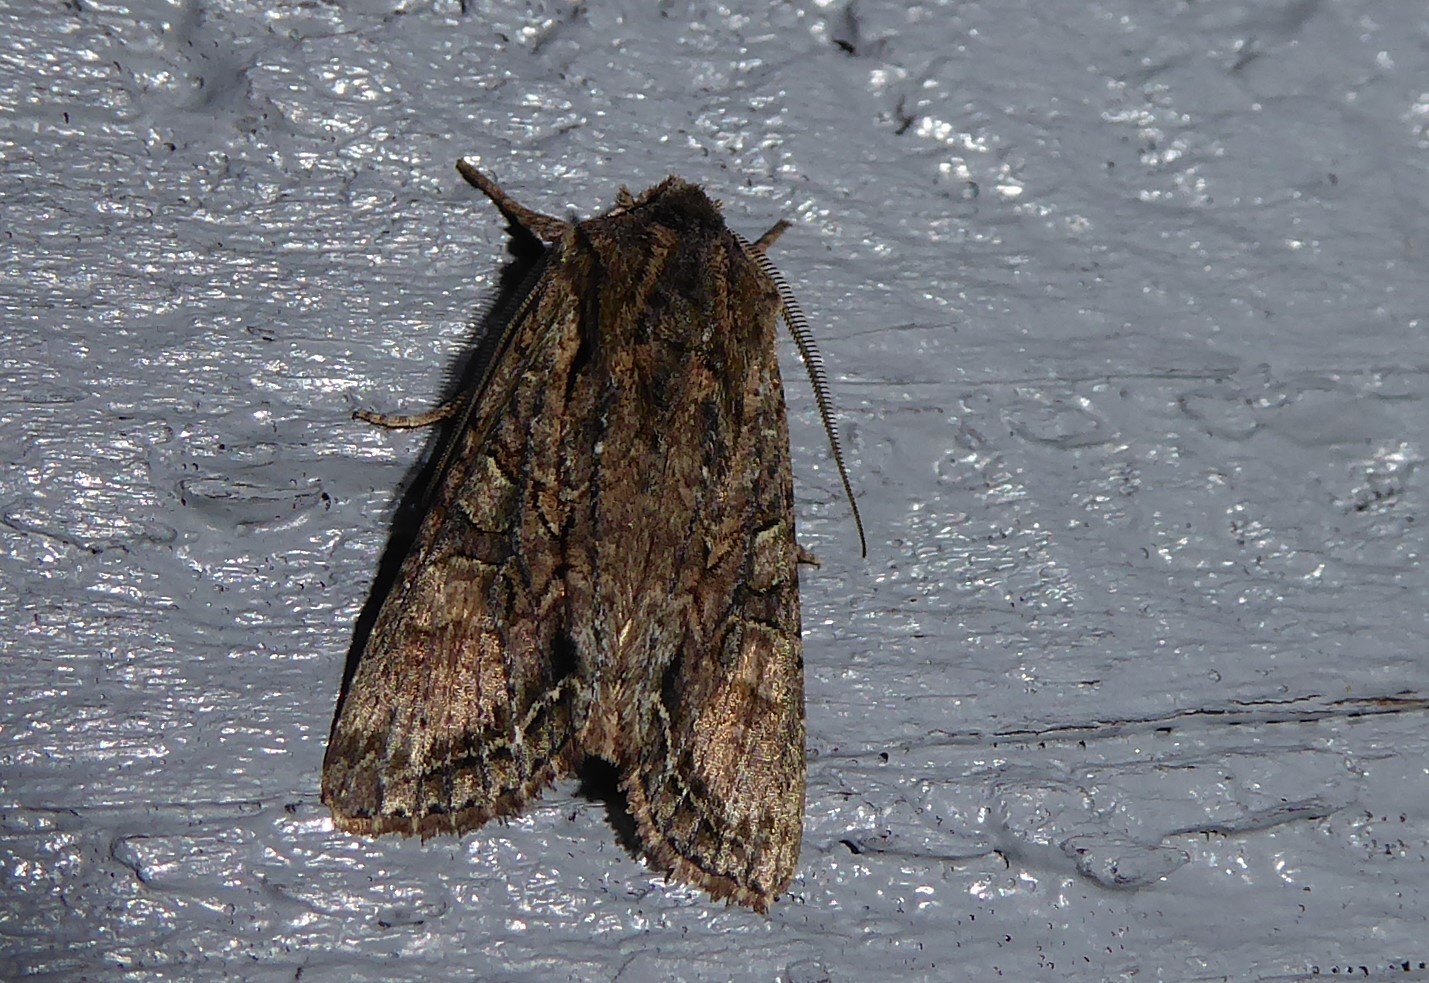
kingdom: Animalia
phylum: Arthropoda
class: Insecta
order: Lepidoptera
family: Noctuidae
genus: Ichneutica
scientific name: Ichneutica mutans
